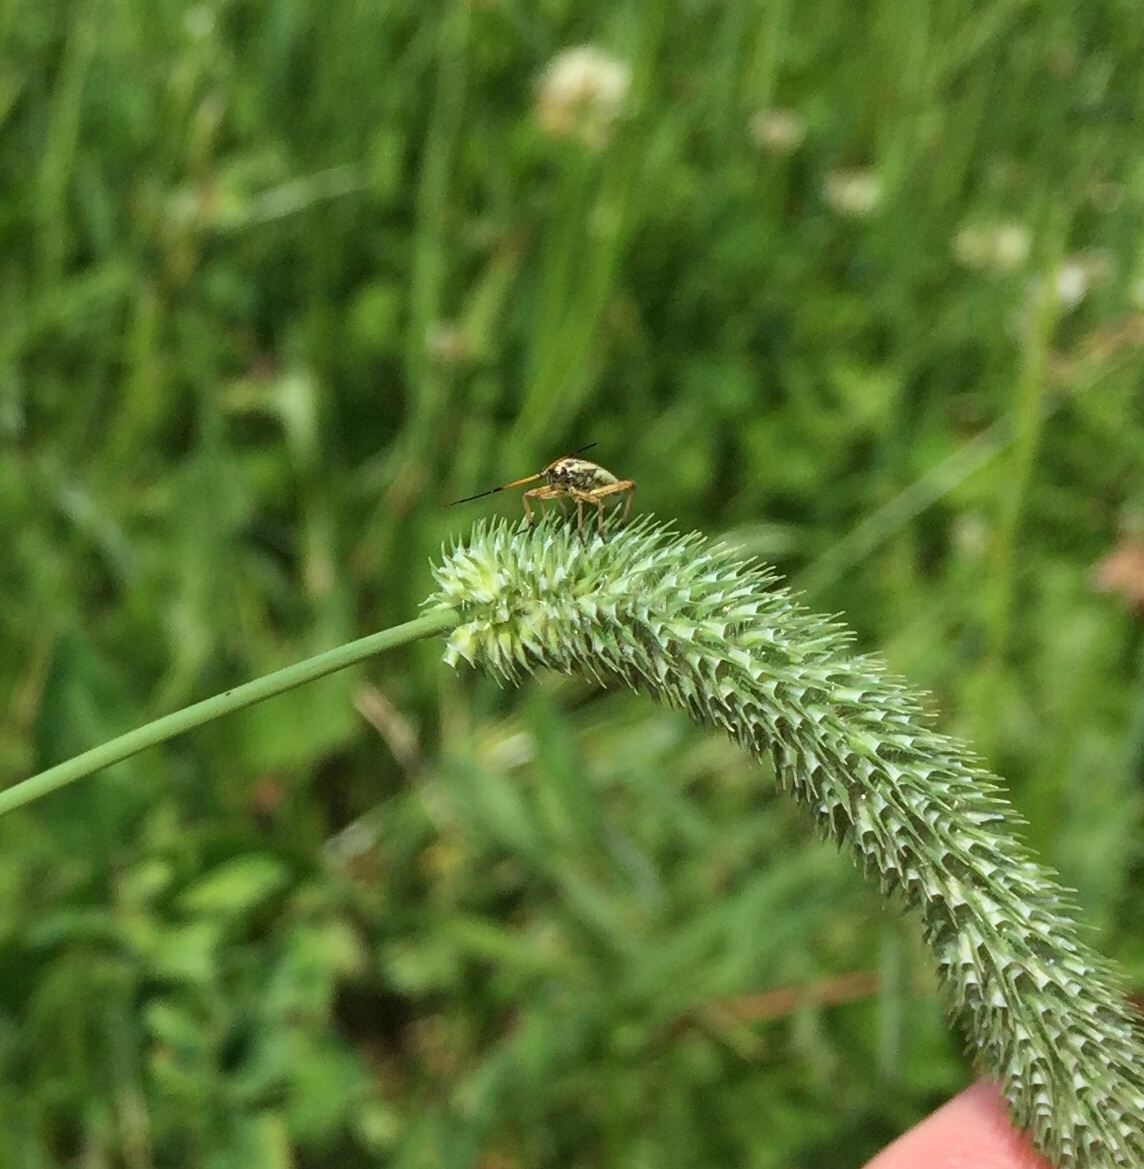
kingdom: Animalia
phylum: Arthropoda
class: Insecta
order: Hemiptera
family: Miridae
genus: Leptopterna
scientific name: Leptopterna dolabrata
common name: Meadow plant bug
